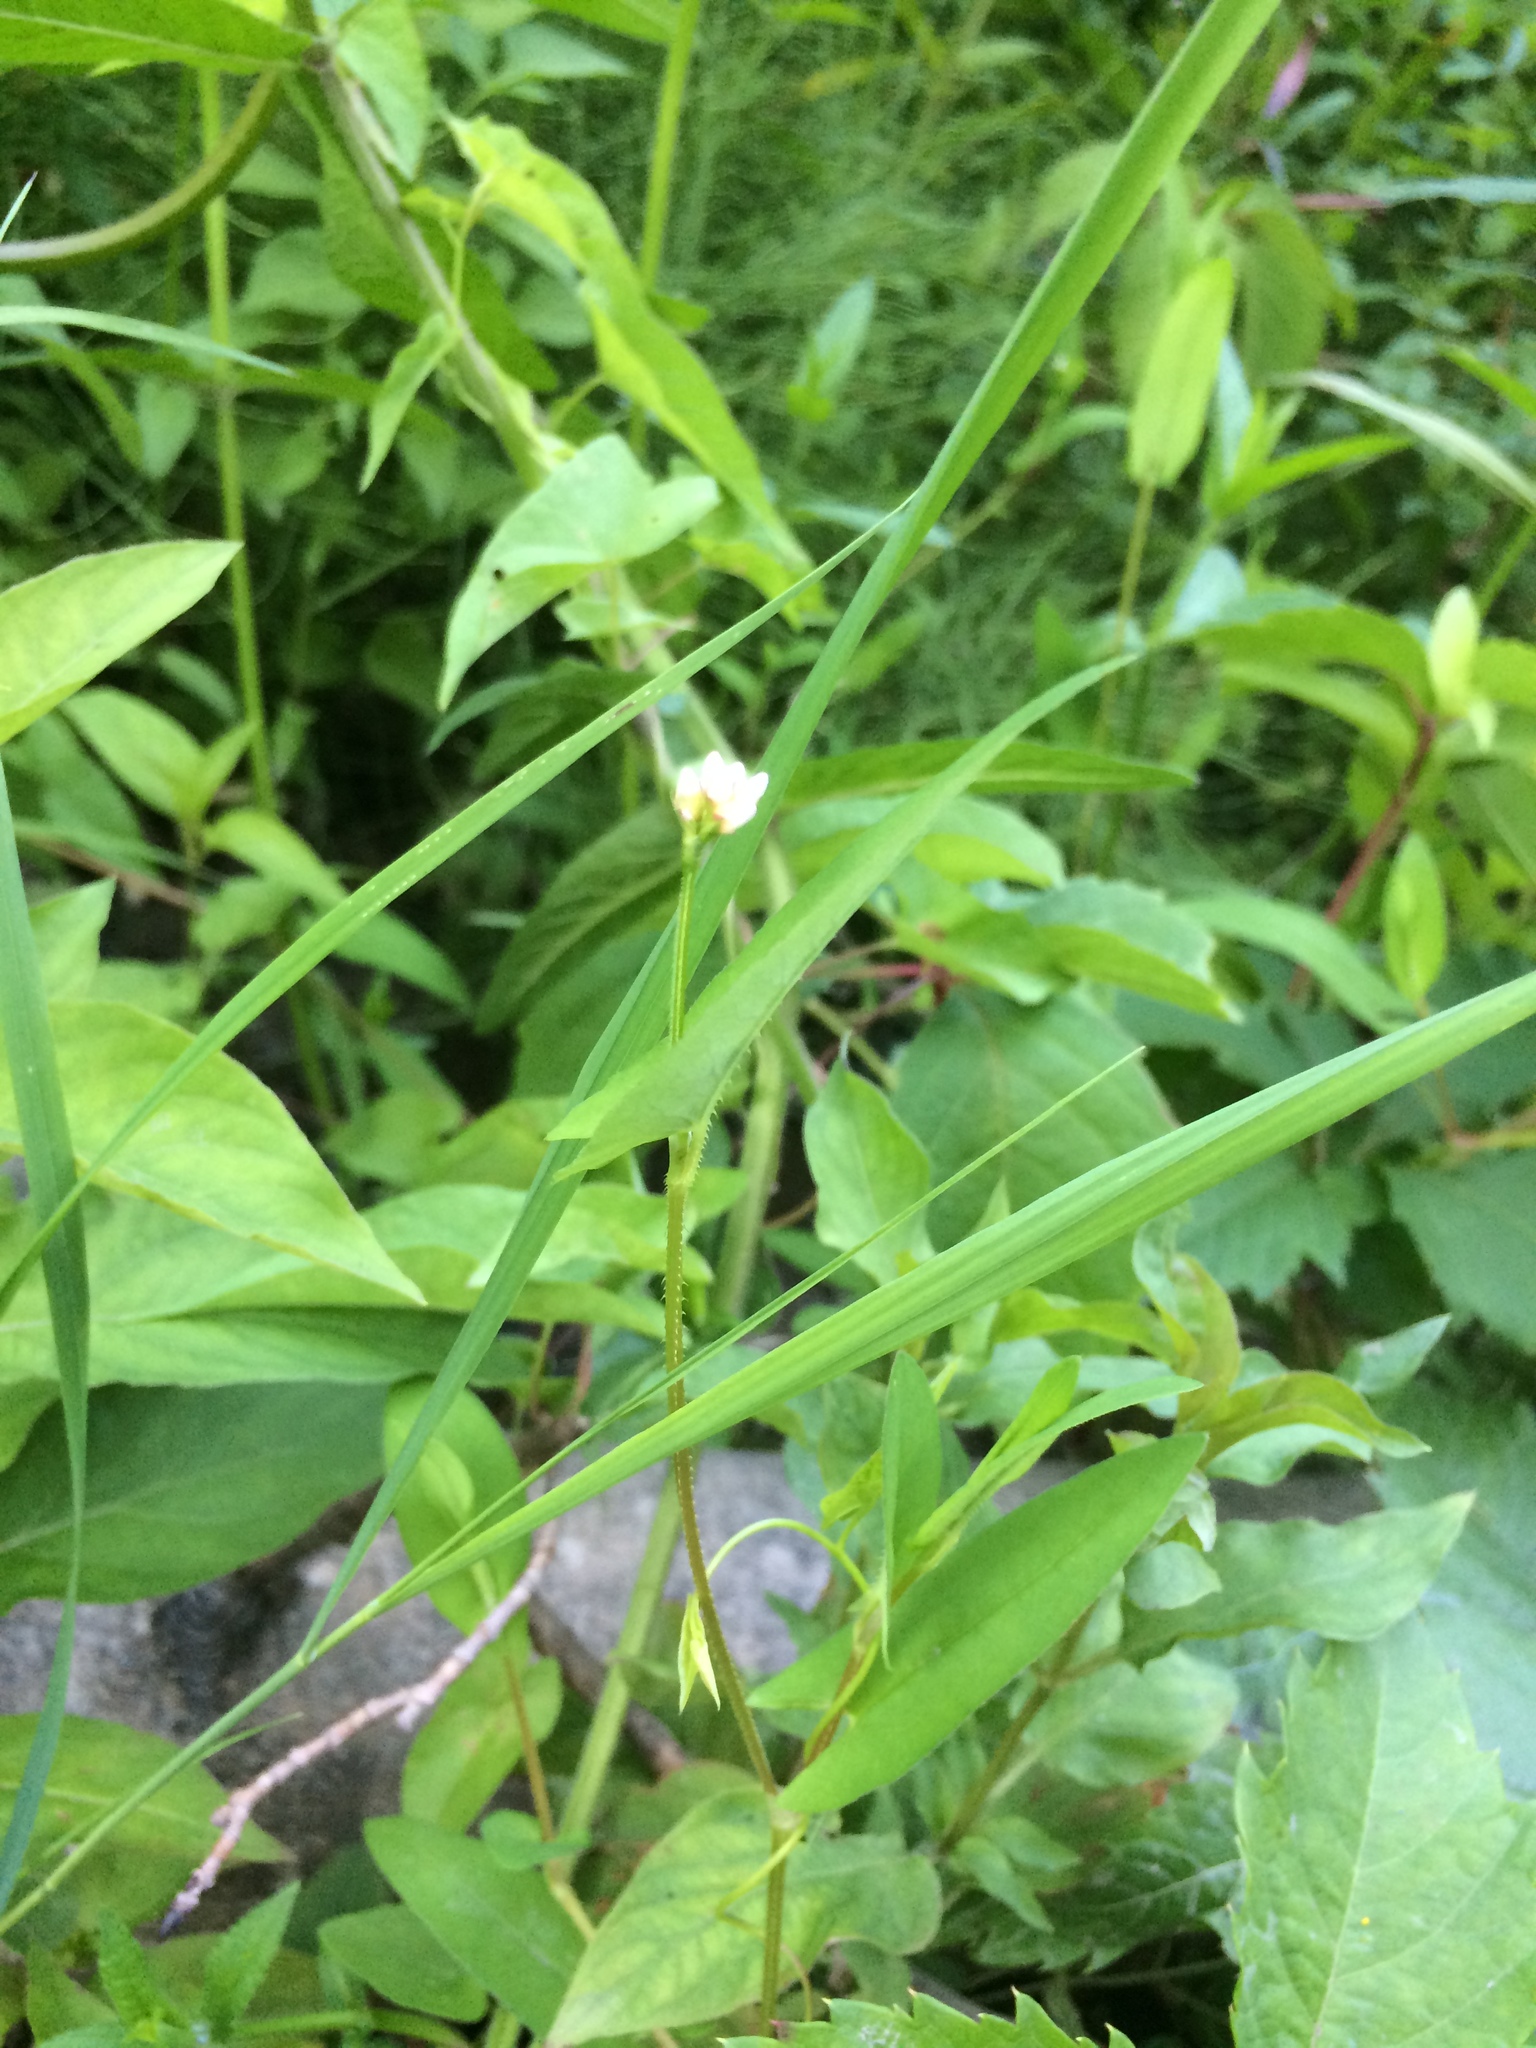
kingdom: Plantae
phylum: Tracheophyta
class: Magnoliopsida
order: Caryophyllales
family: Polygonaceae
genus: Persicaria
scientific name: Persicaria sagittata
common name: American tearthumb
